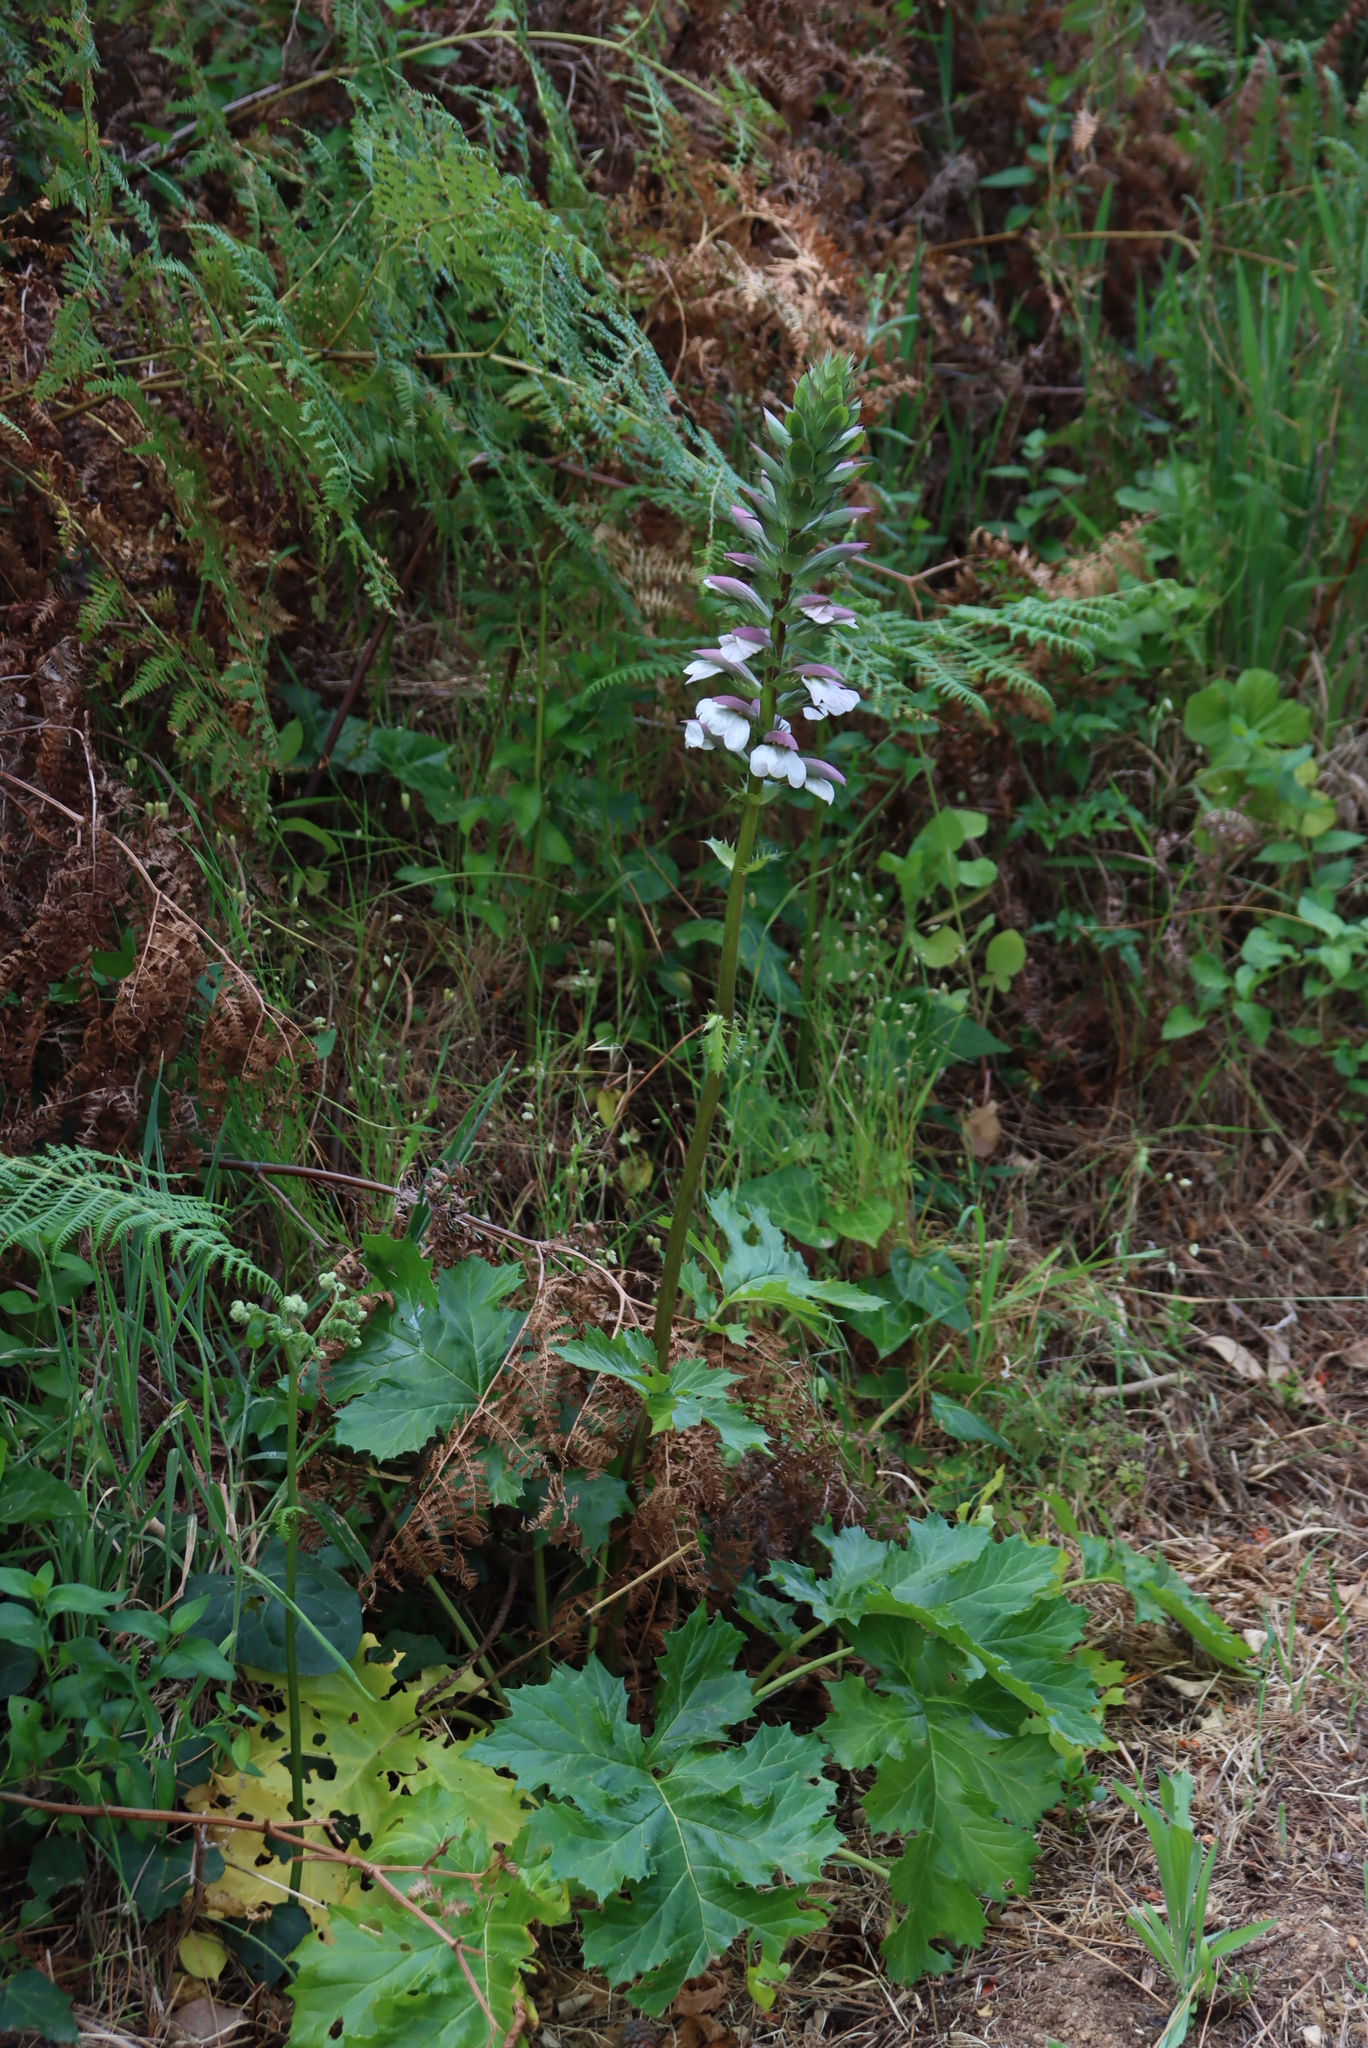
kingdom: Plantae
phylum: Tracheophyta
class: Magnoliopsida
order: Lamiales
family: Acanthaceae
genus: Acanthus
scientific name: Acanthus mollis
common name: Bear's-breech
